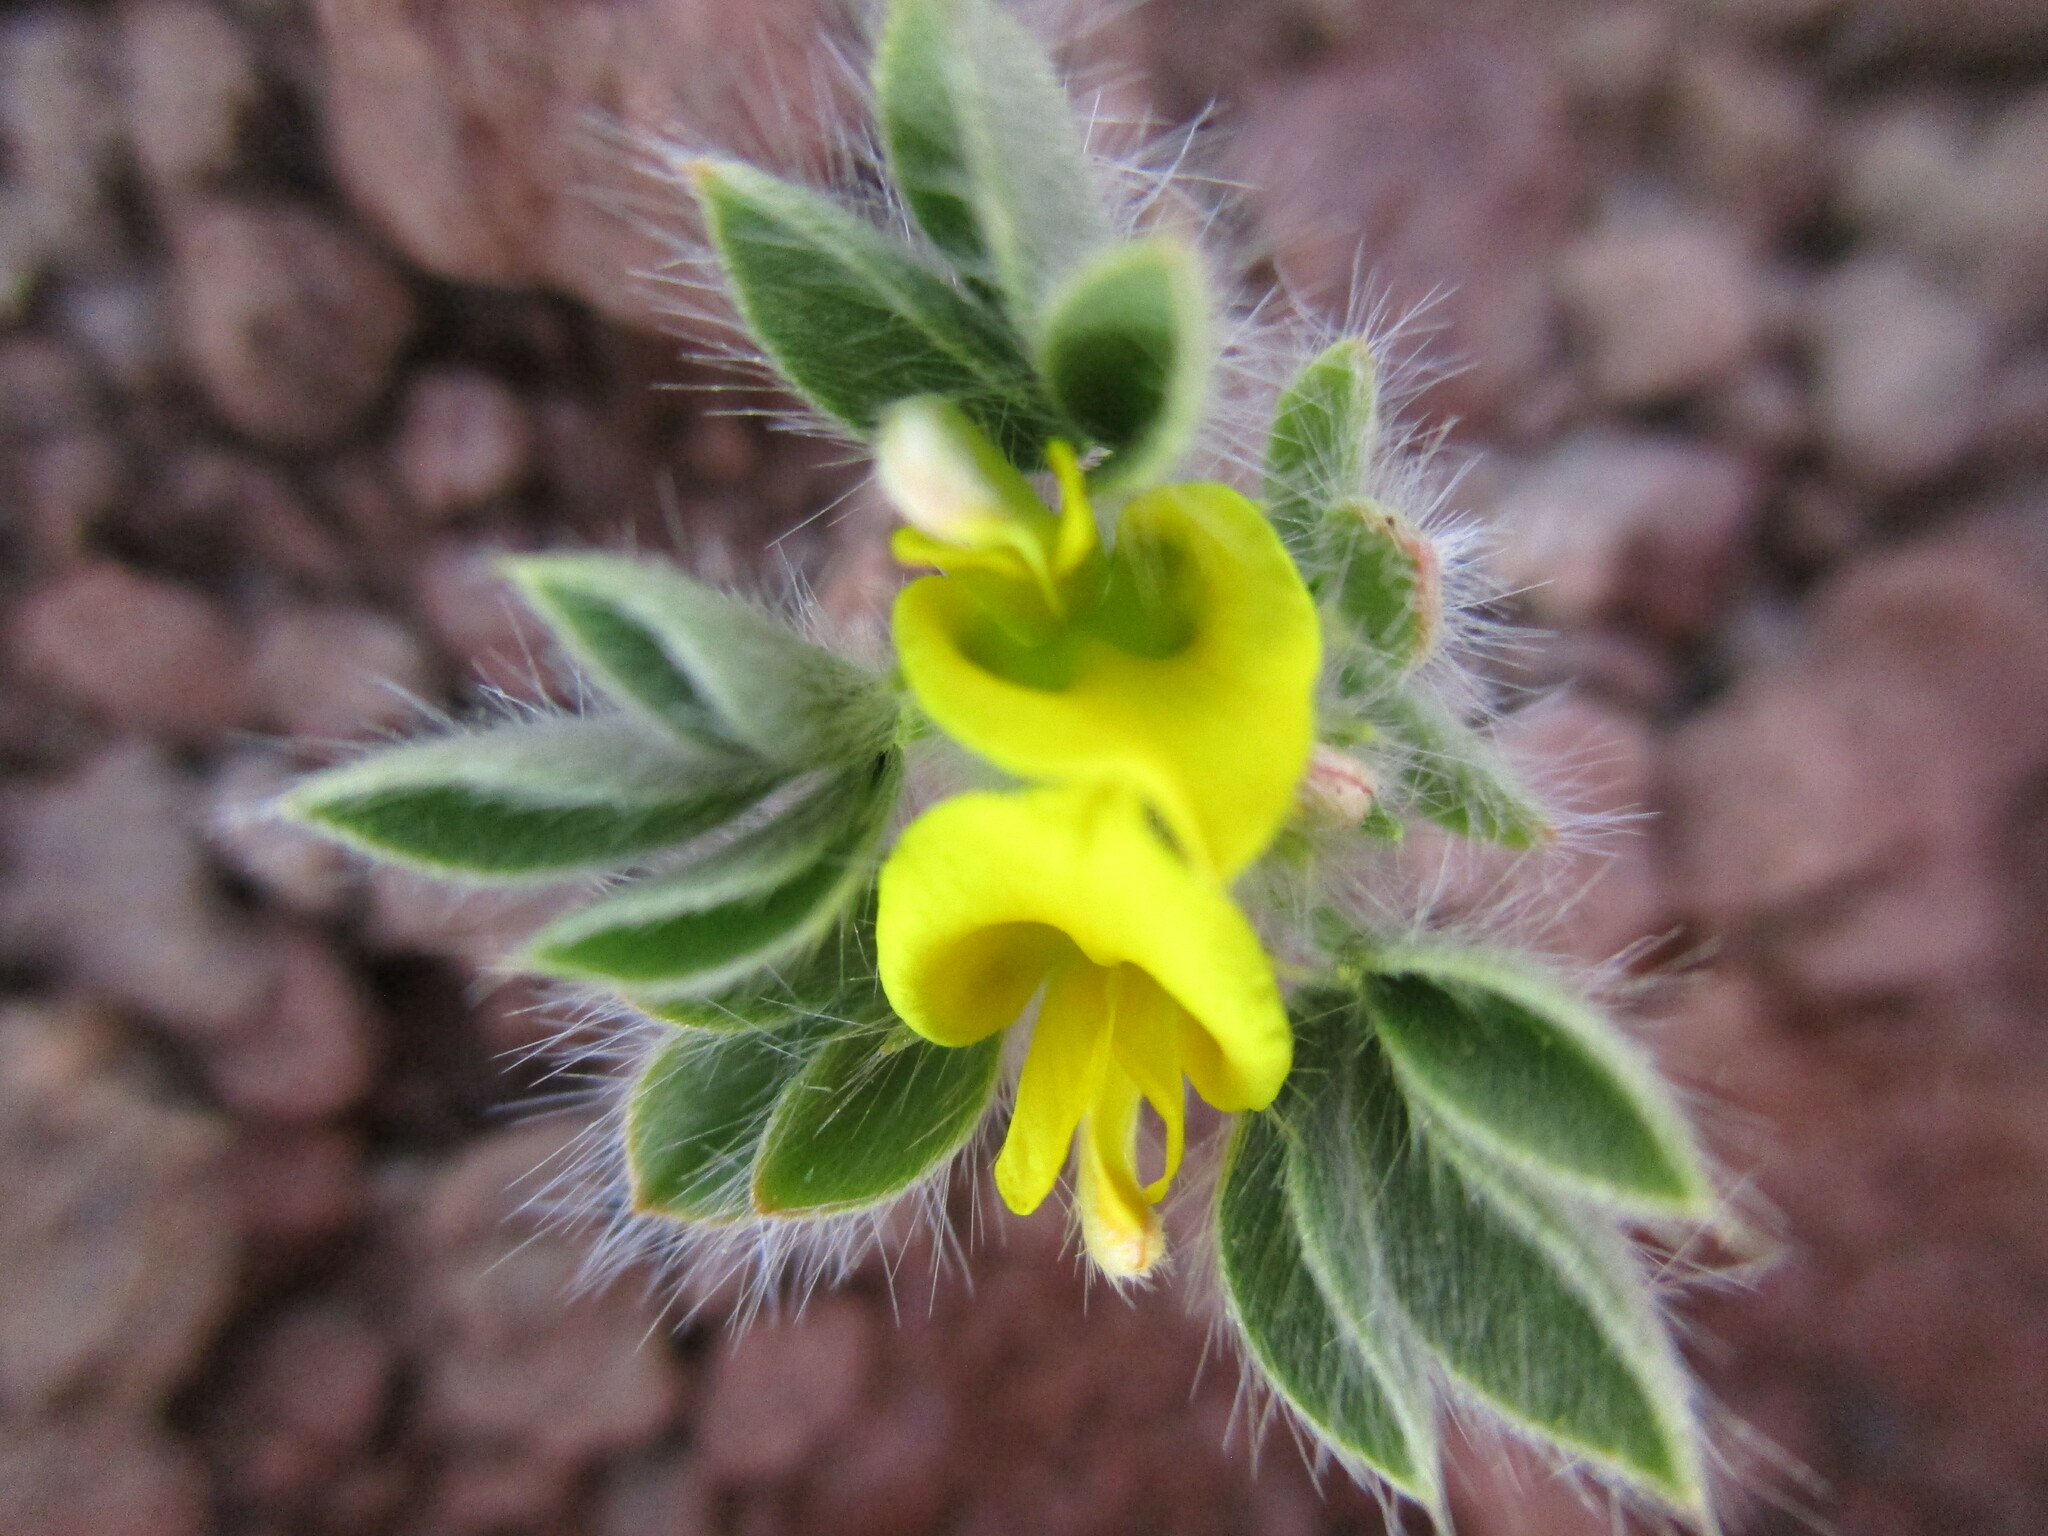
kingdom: Plantae
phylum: Tracheophyta
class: Magnoliopsida
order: Fabales
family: Fabaceae
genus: Leobordea
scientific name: Leobordea platycarpa
